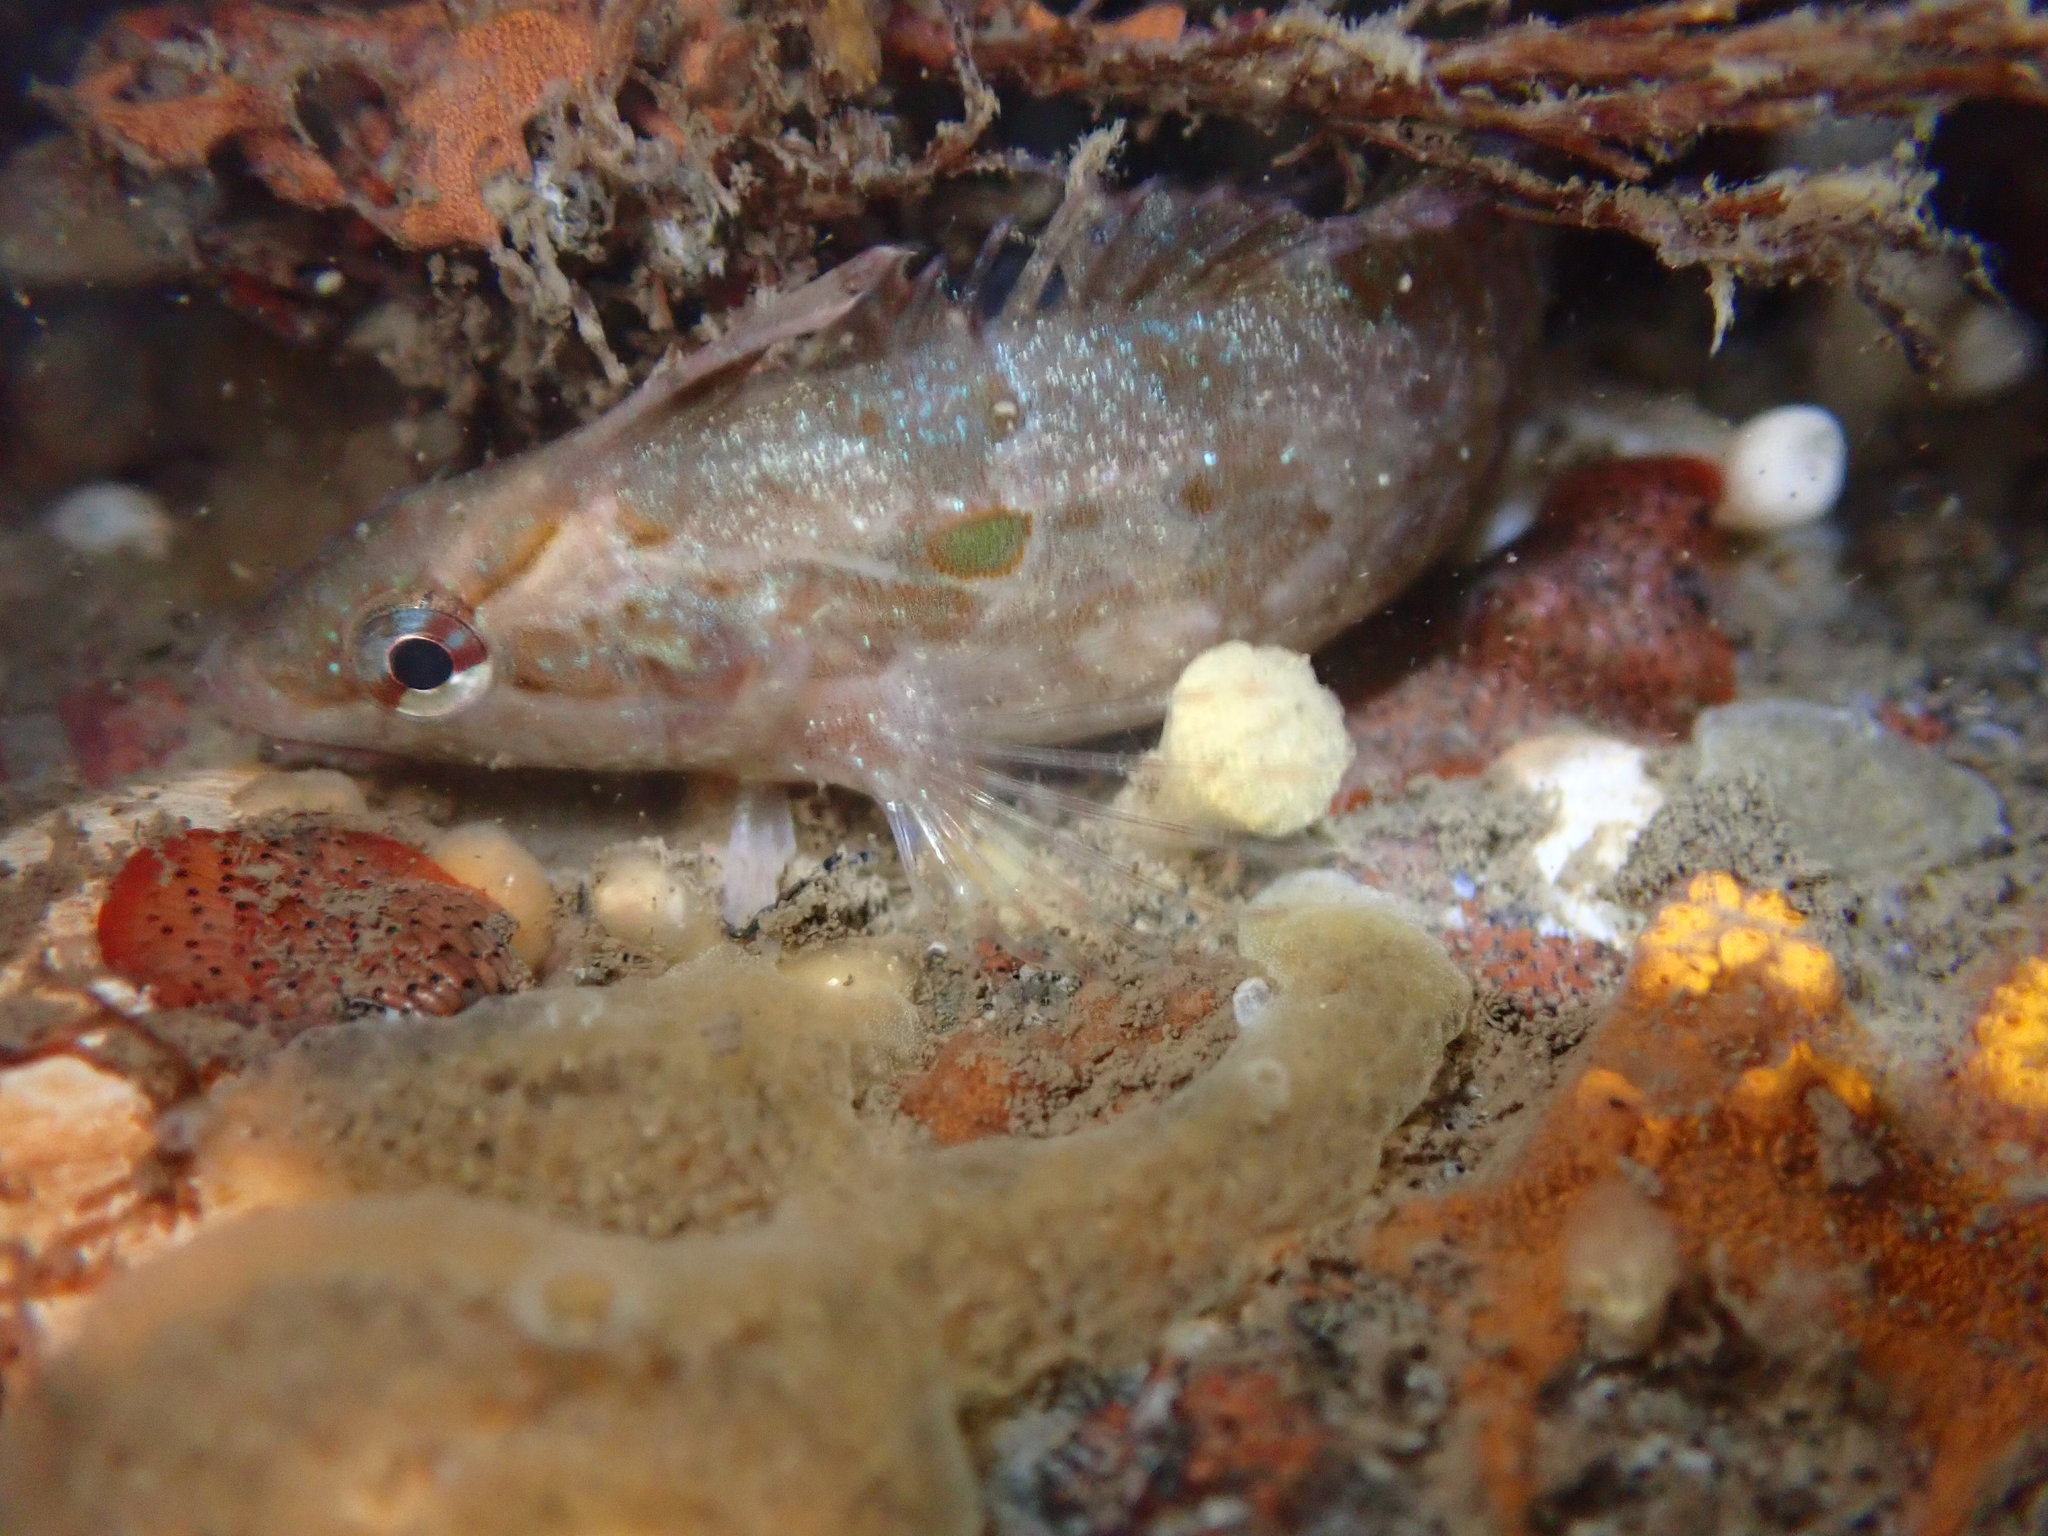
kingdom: Animalia
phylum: Chordata
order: Perciformes
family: Clinidae
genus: Gibbonsia
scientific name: Gibbonsia elegans
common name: Spotted kelpfish
